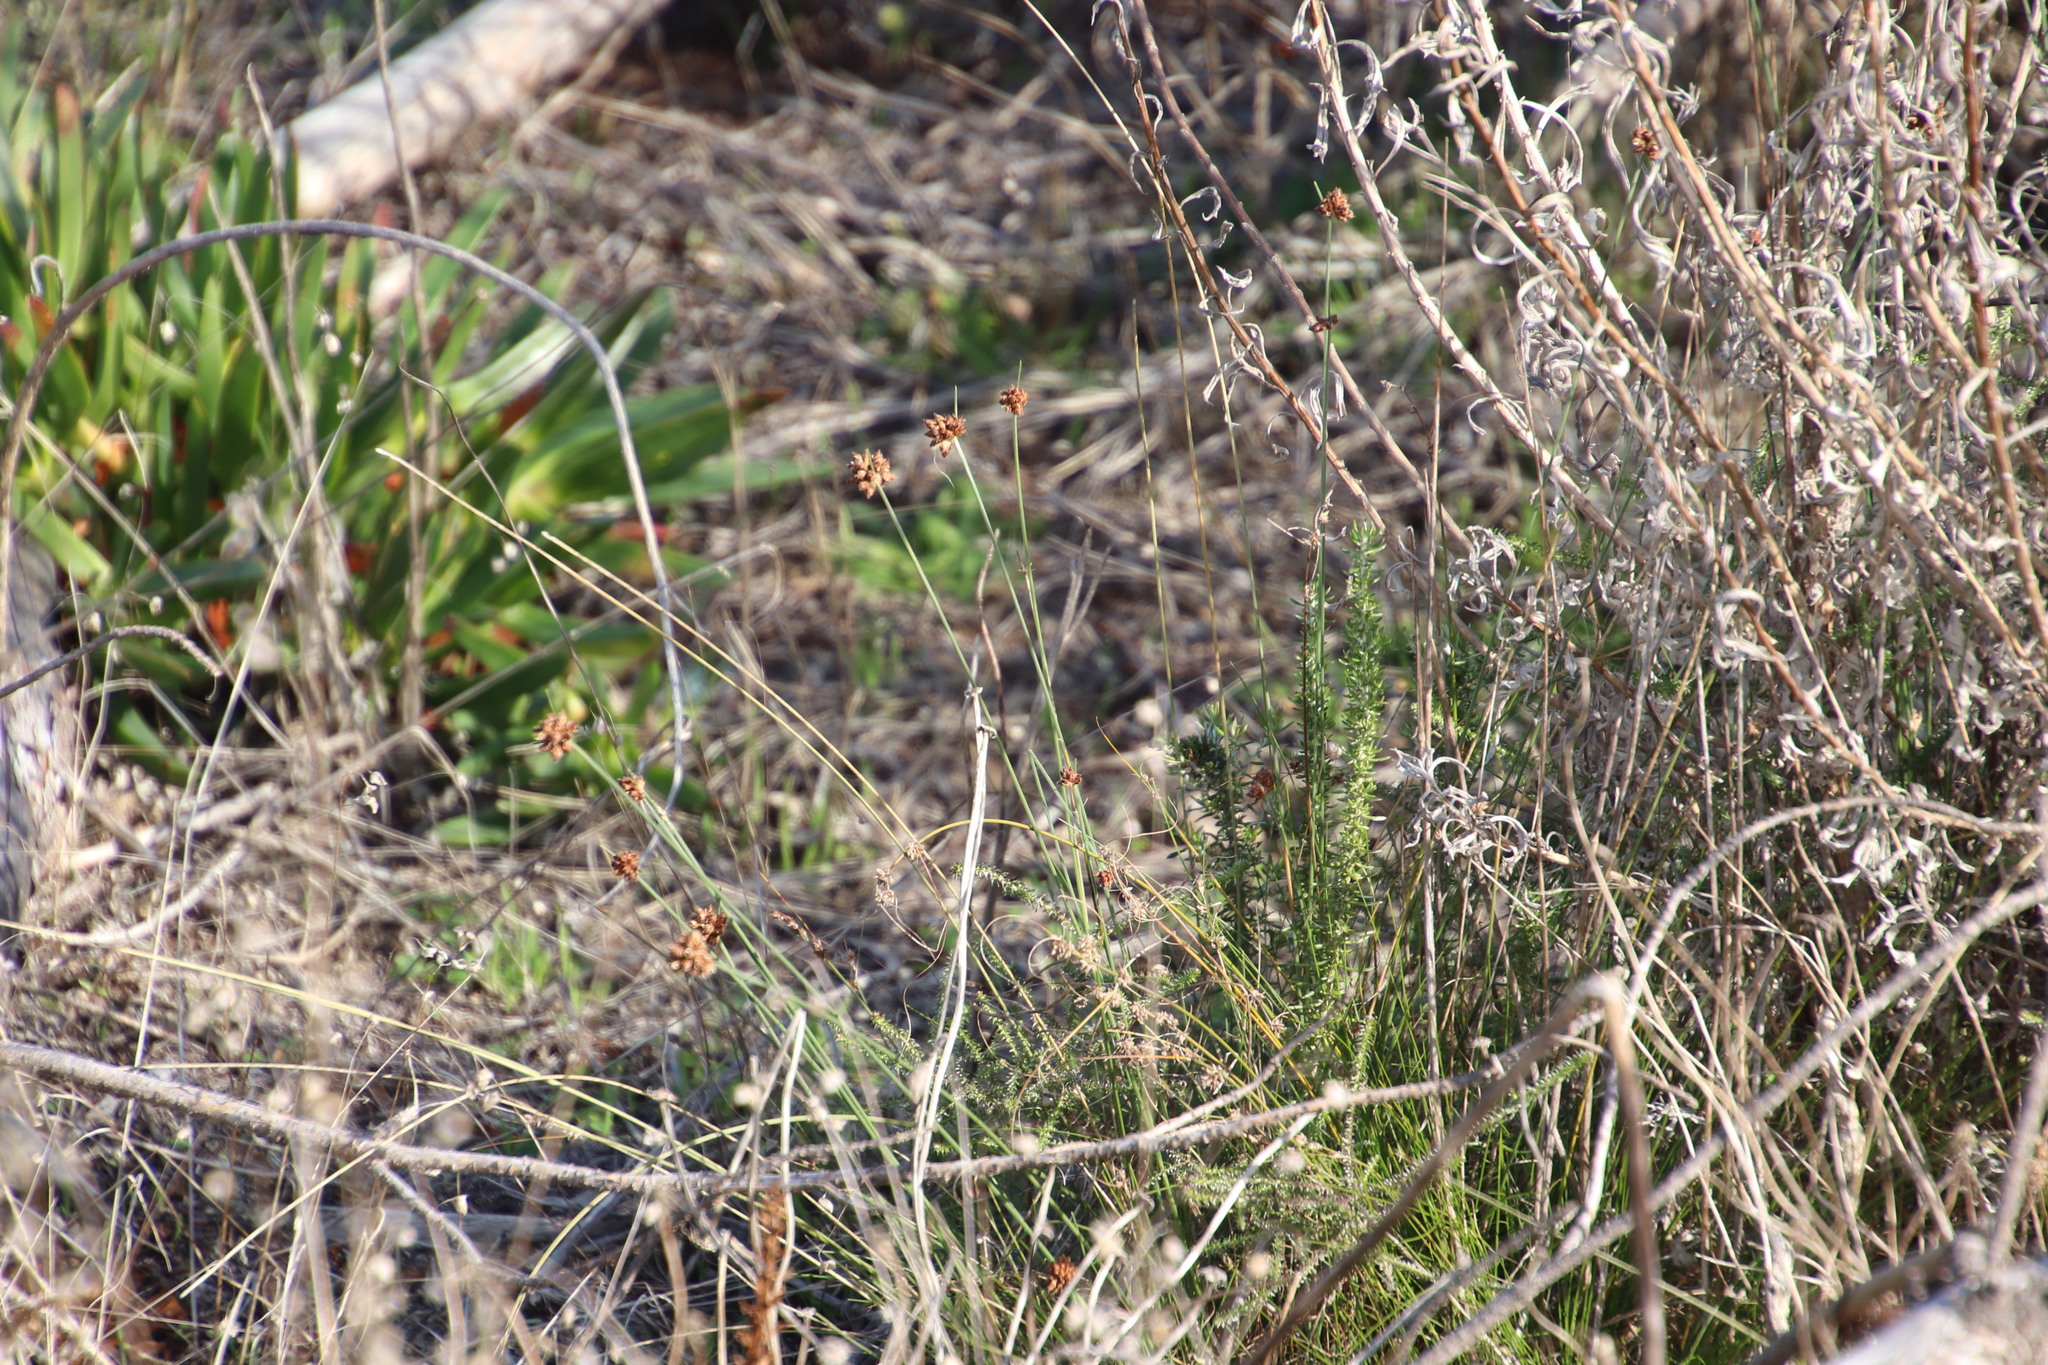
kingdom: Plantae
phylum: Tracheophyta
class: Liliopsida
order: Poales
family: Cyperaceae
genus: Ficinia
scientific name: Ficinia ecklonea
